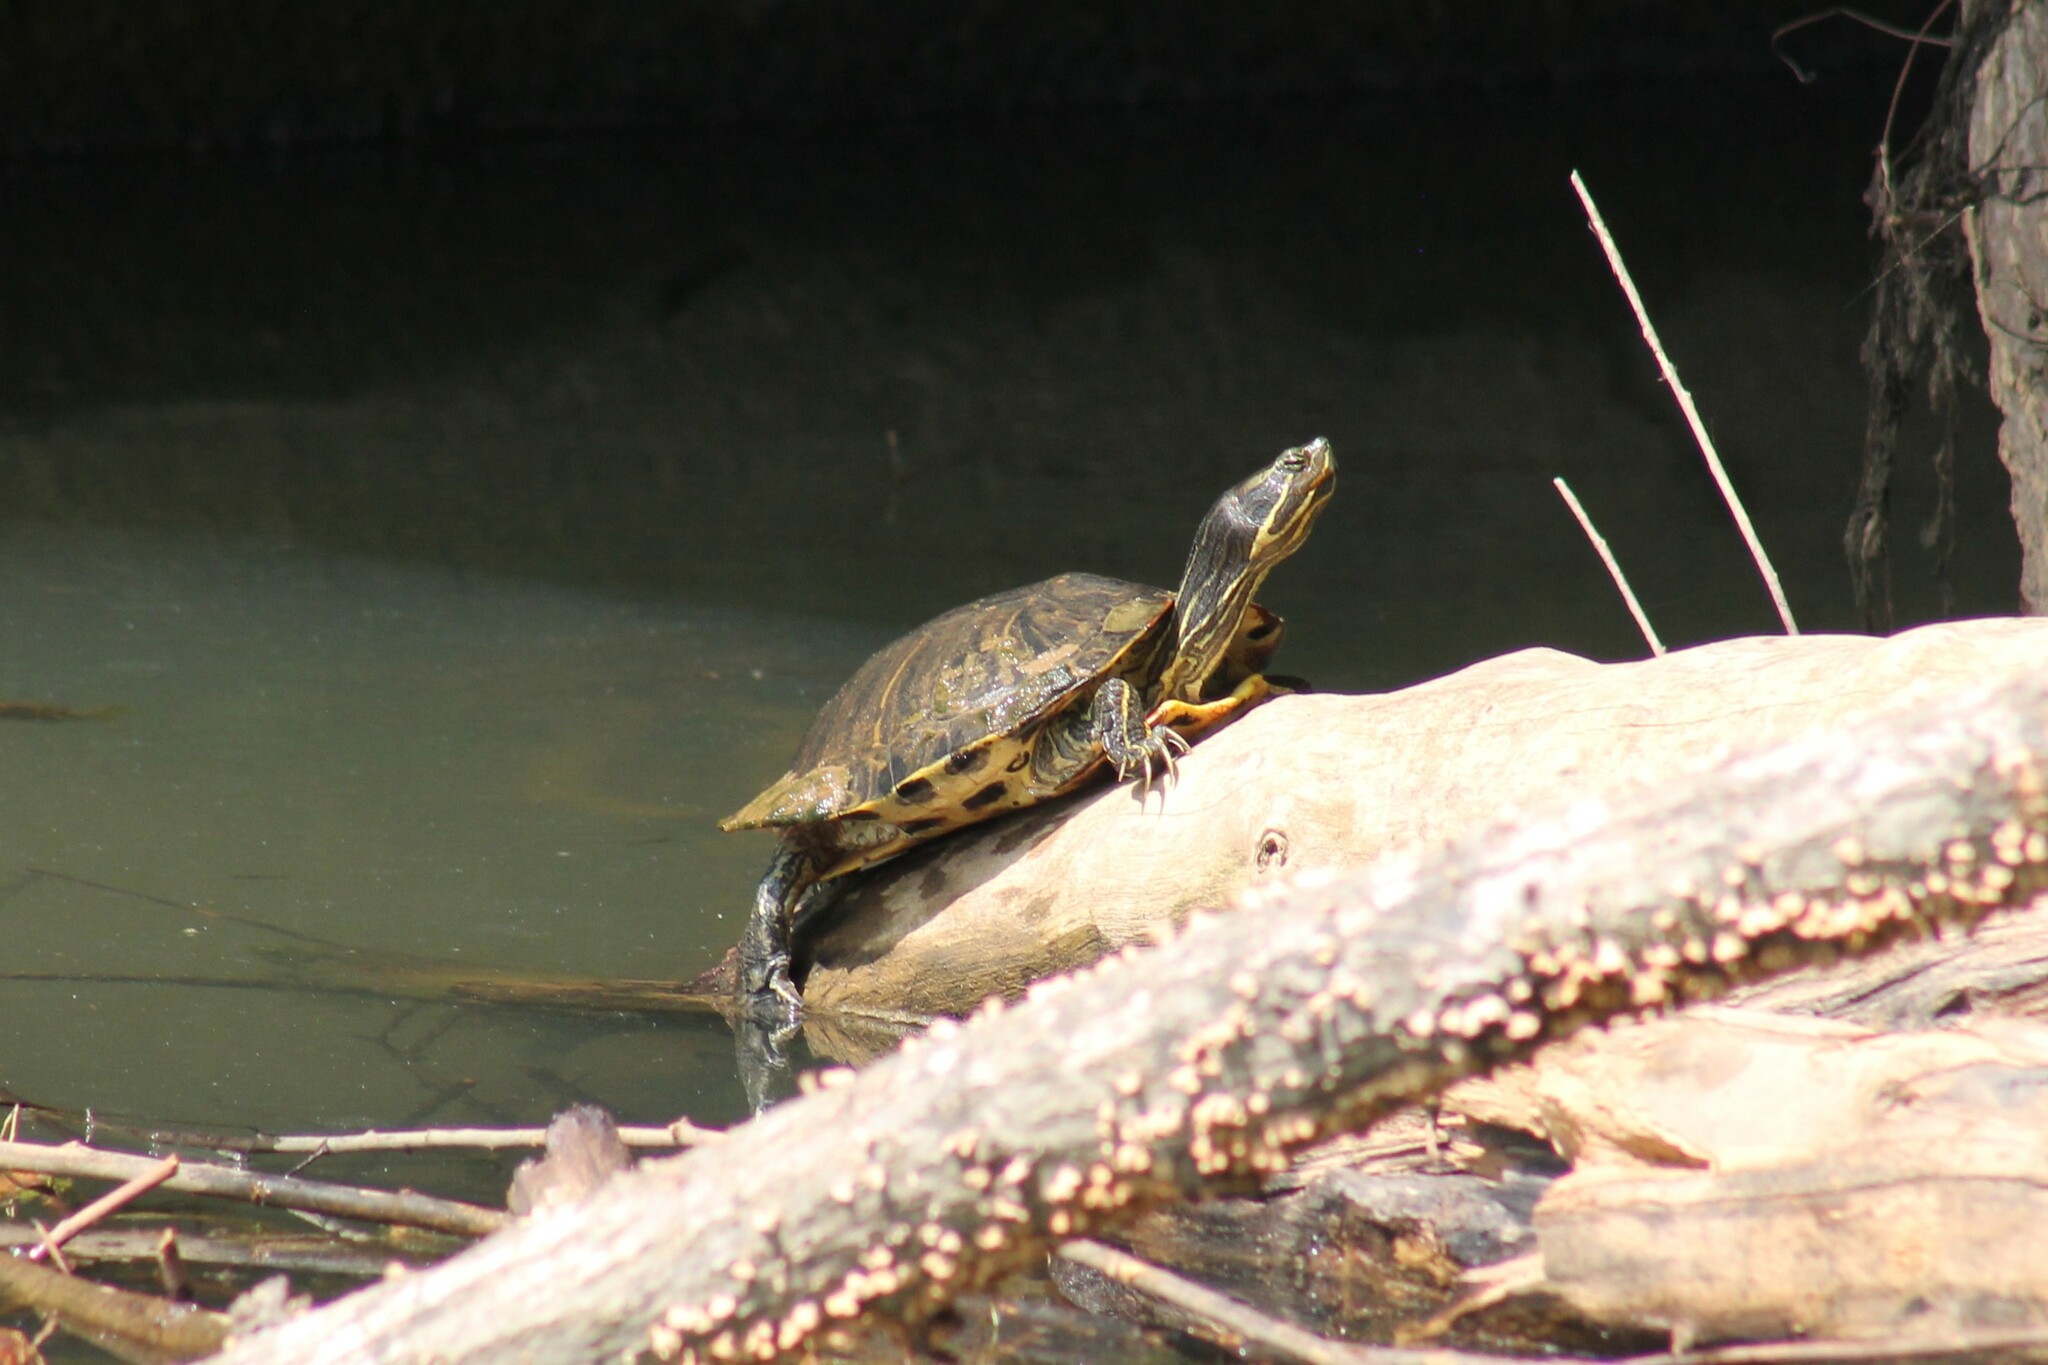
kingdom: Animalia
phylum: Chordata
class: Testudines
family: Emydidae
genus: Trachemys
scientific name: Trachemys scripta
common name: Slider
